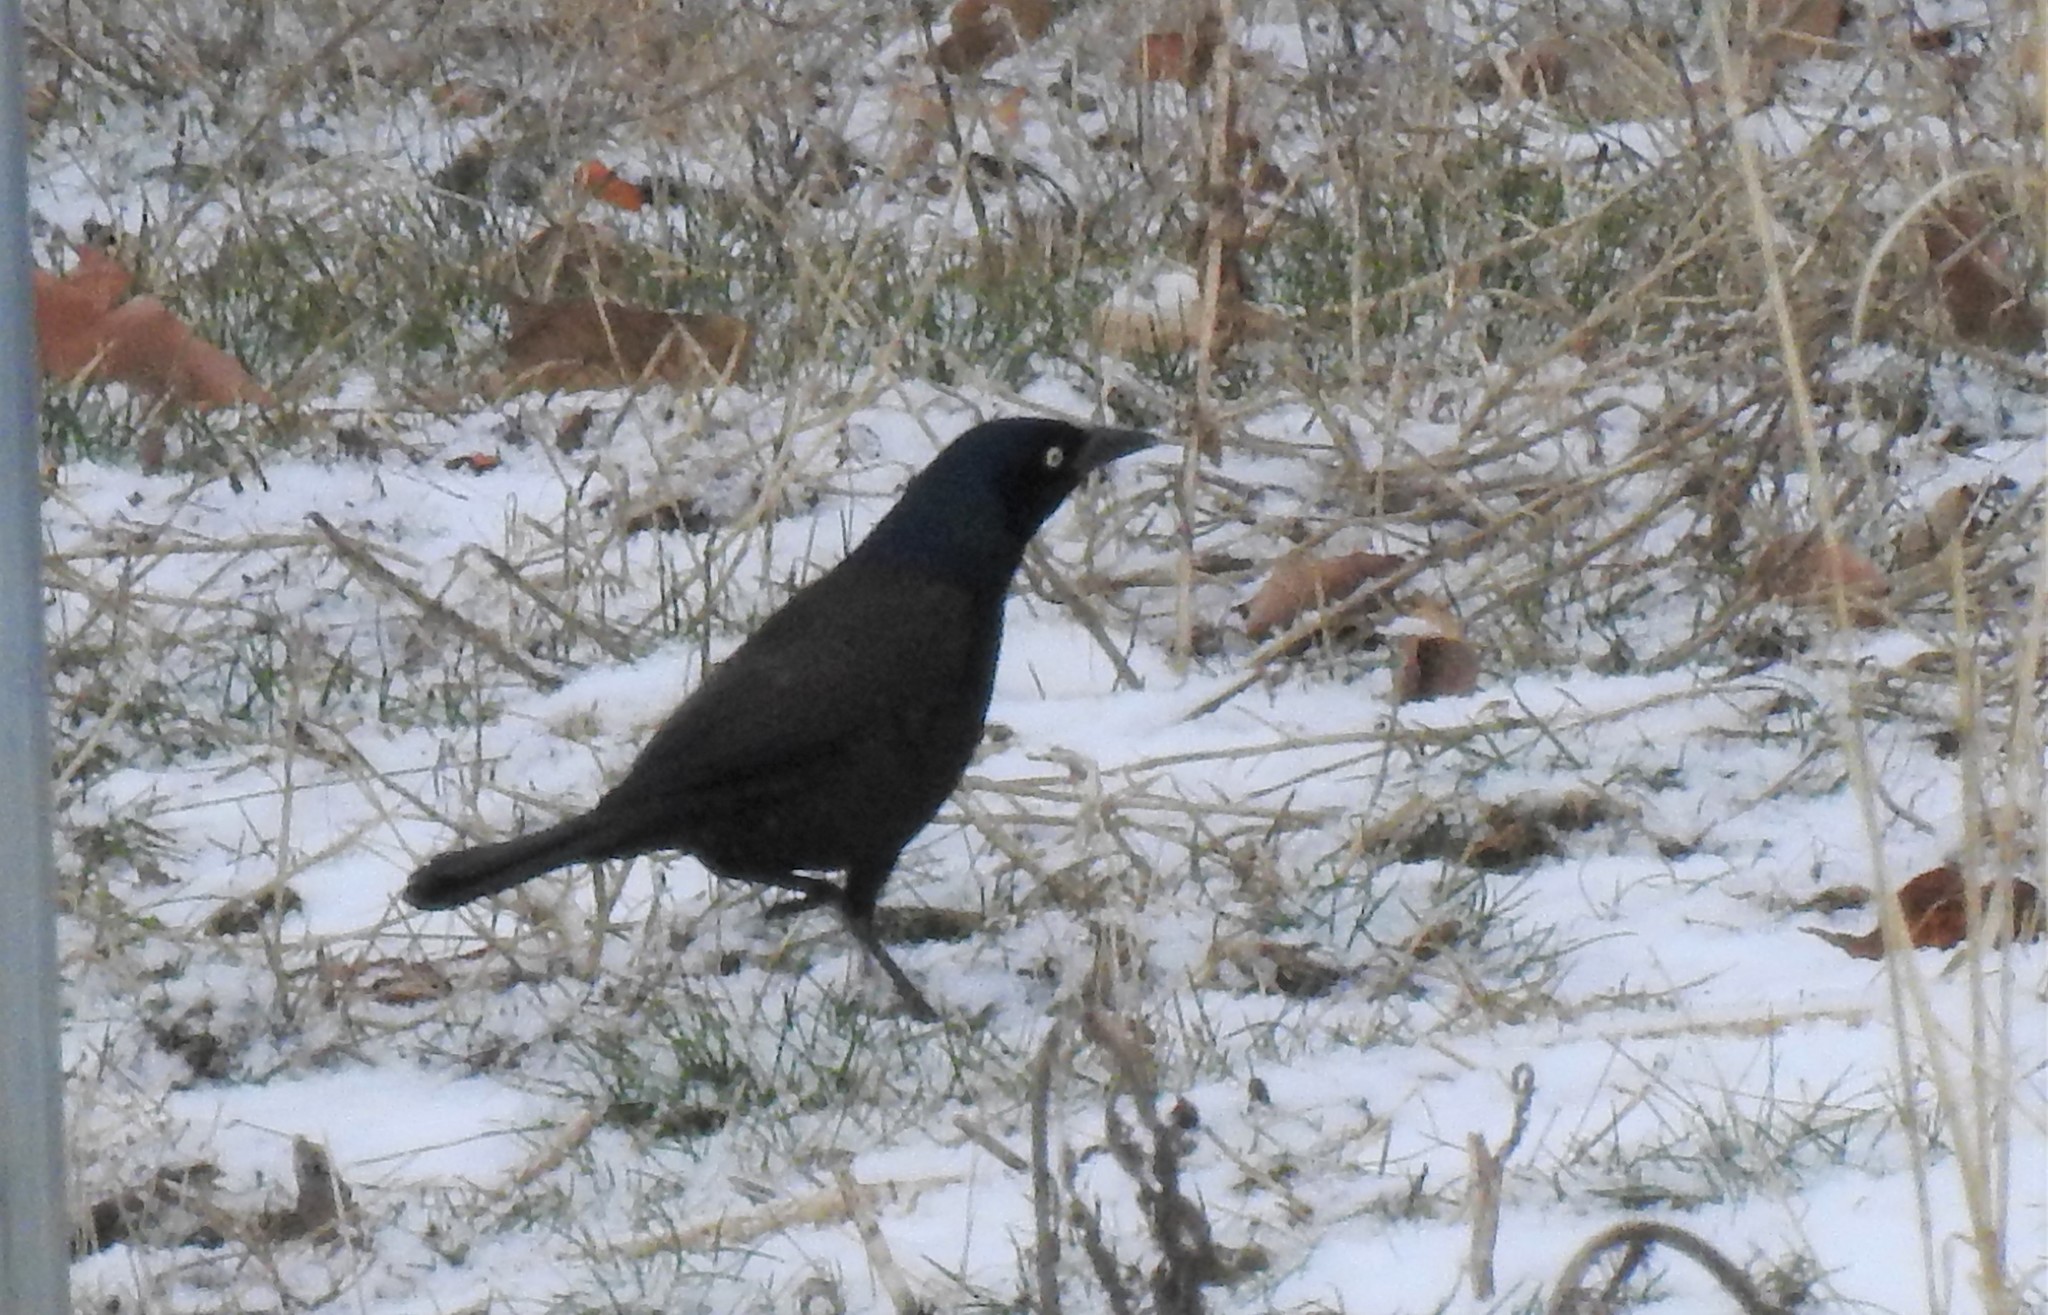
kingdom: Animalia
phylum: Chordata
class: Aves
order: Passeriformes
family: Icteridae
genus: Quiscalus
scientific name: Quiscalus quiscula
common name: Common grackle
